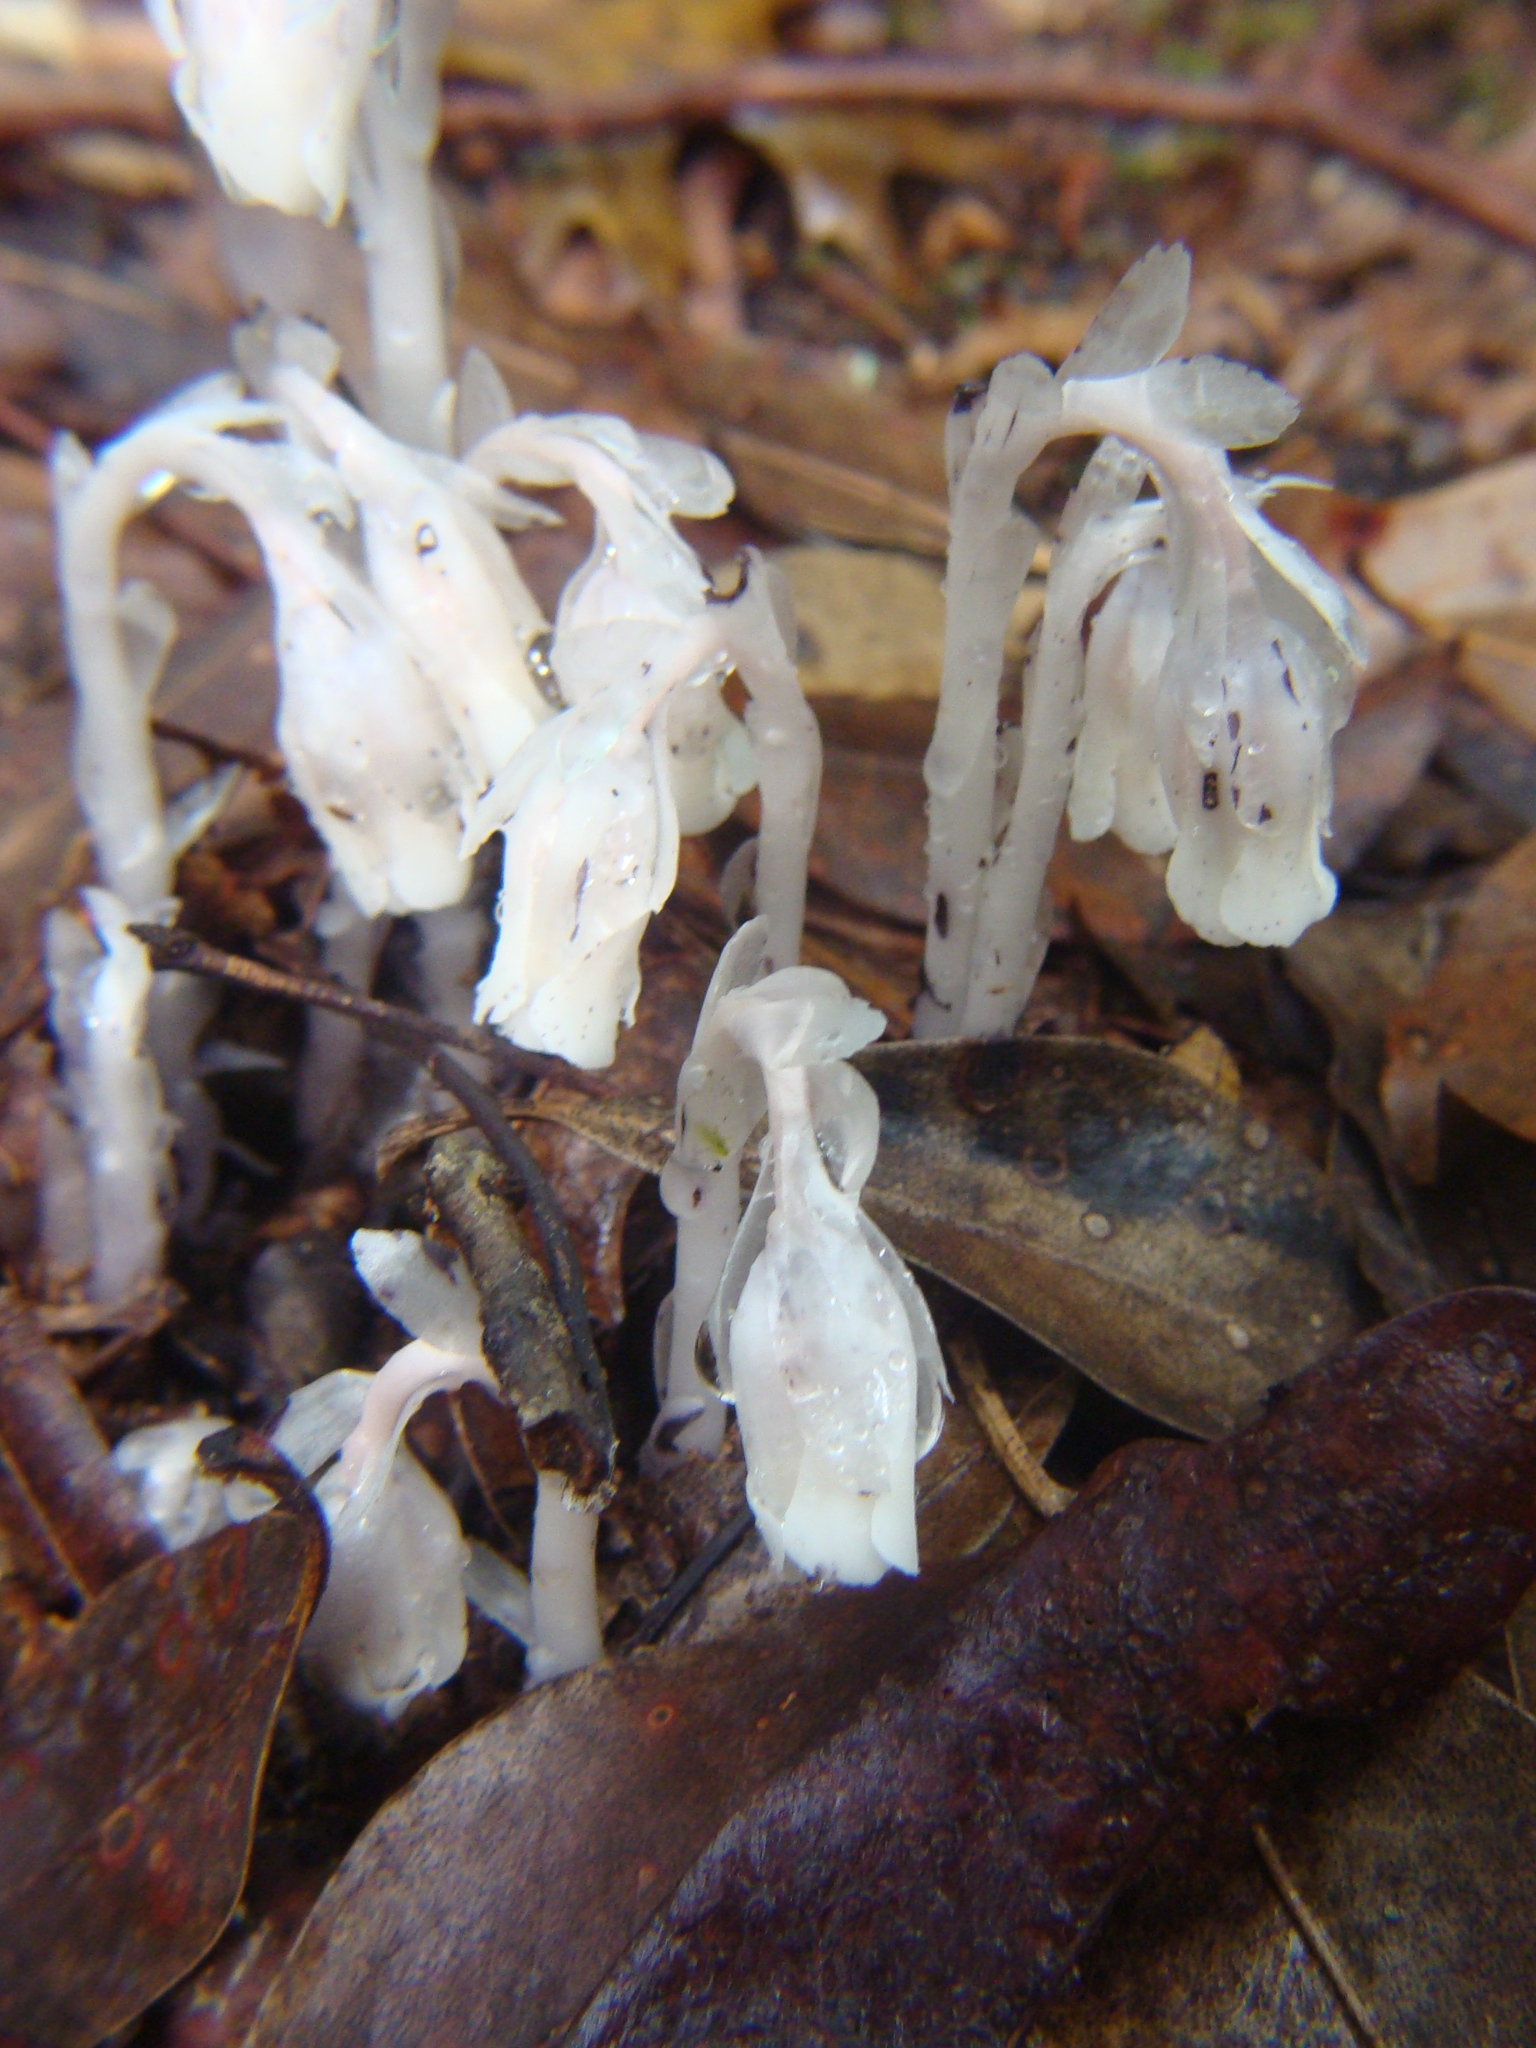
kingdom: Plantae
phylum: Tracheophyta
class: Magnoliopsida
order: Ericales
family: Ericaceae
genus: Monotropa
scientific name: Monotropa uniflora
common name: Convulsion root
